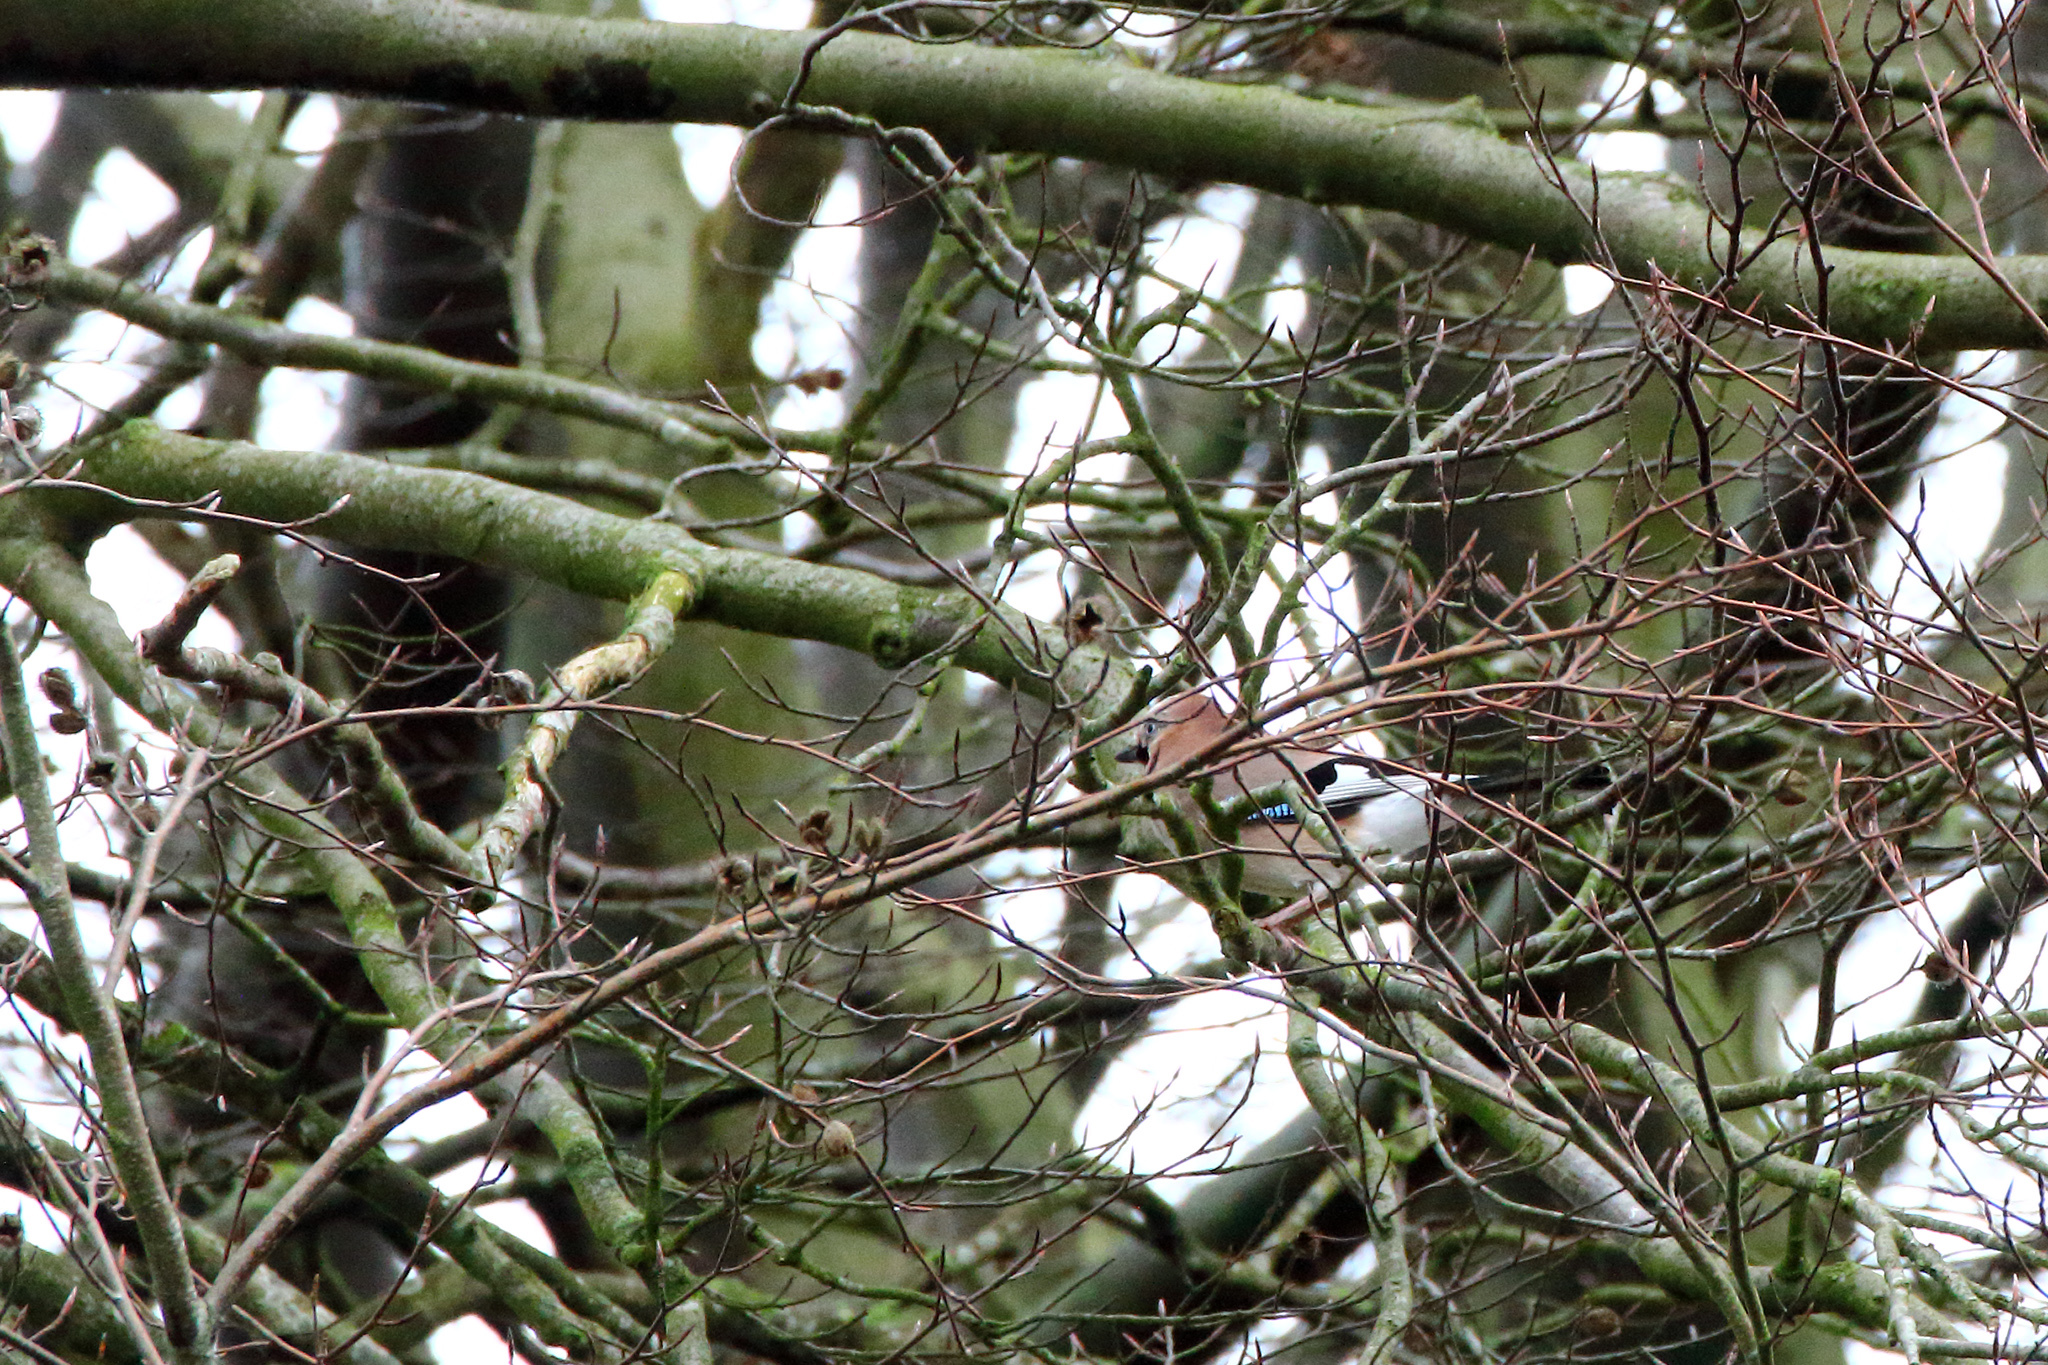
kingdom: Animalia
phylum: Chordata
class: Aves
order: Passeriformes
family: Corvidae
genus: Garrulus
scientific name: Garrulus glandarius
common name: Eurasian jay
